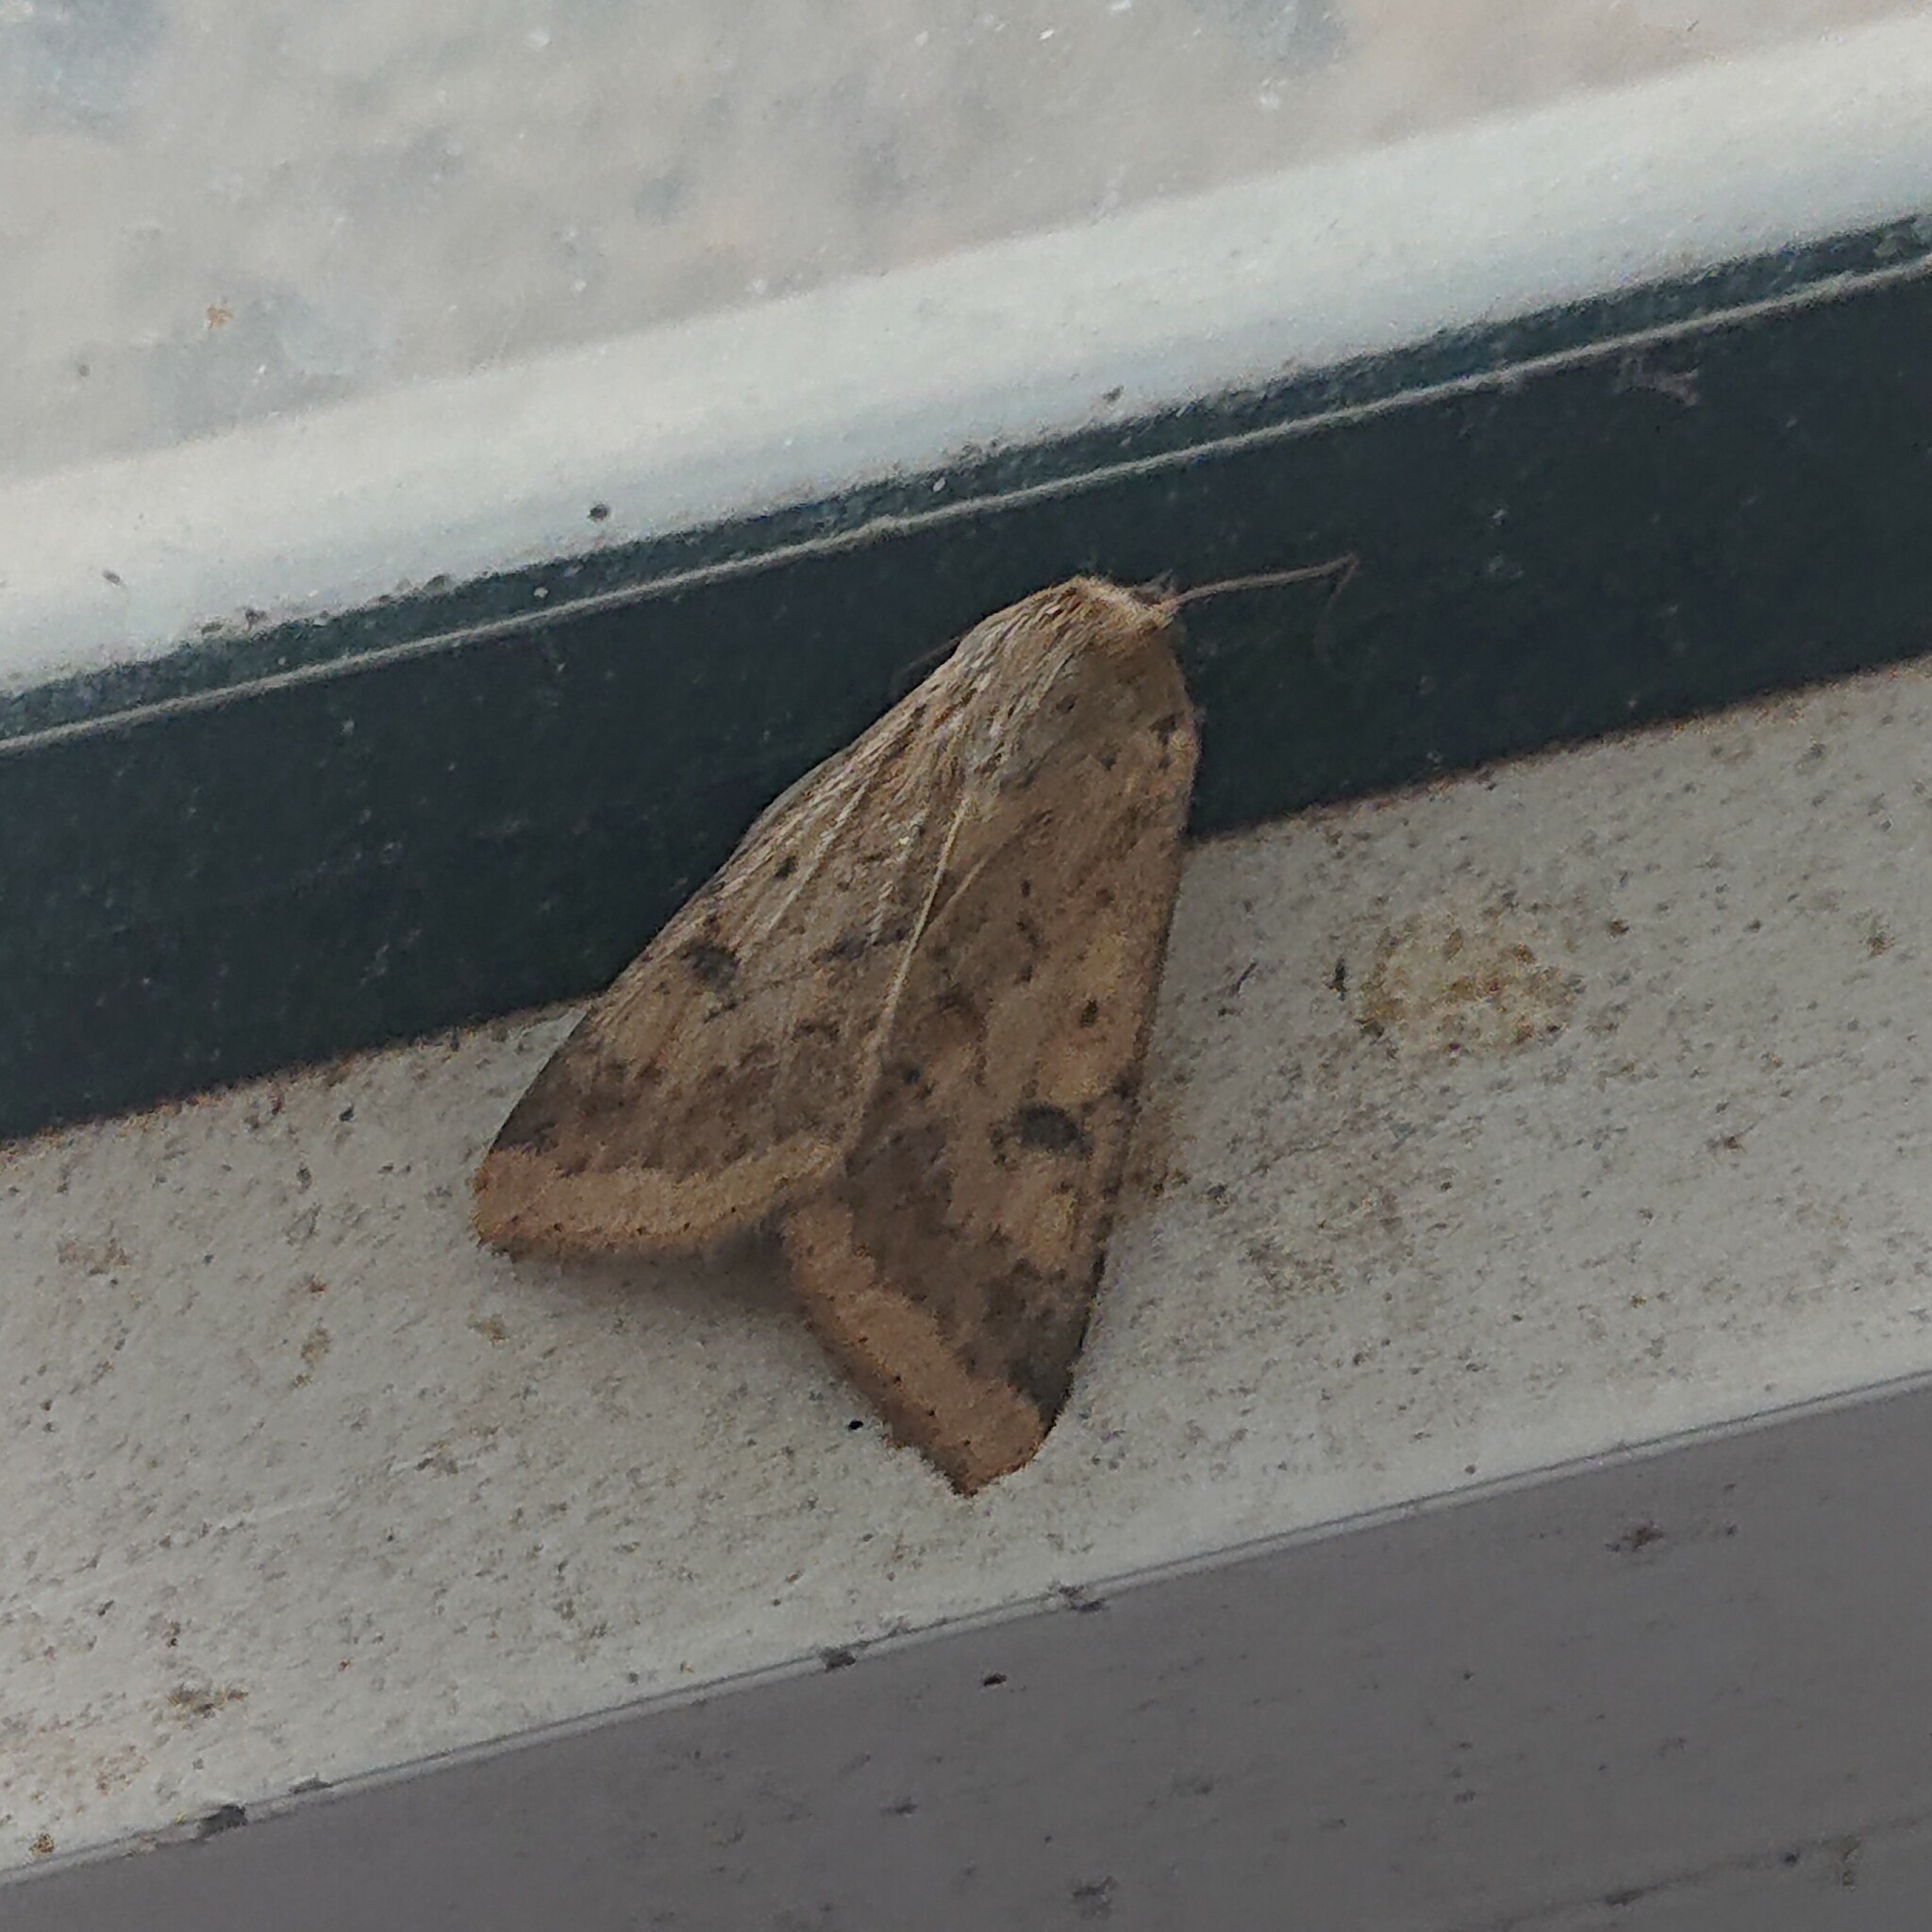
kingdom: Animalia
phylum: Arthropoda
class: Insecta
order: Lepidoptera
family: Noctuidae
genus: Helicoverpa
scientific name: Helicoverpa armigera
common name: Cotton bollworm
